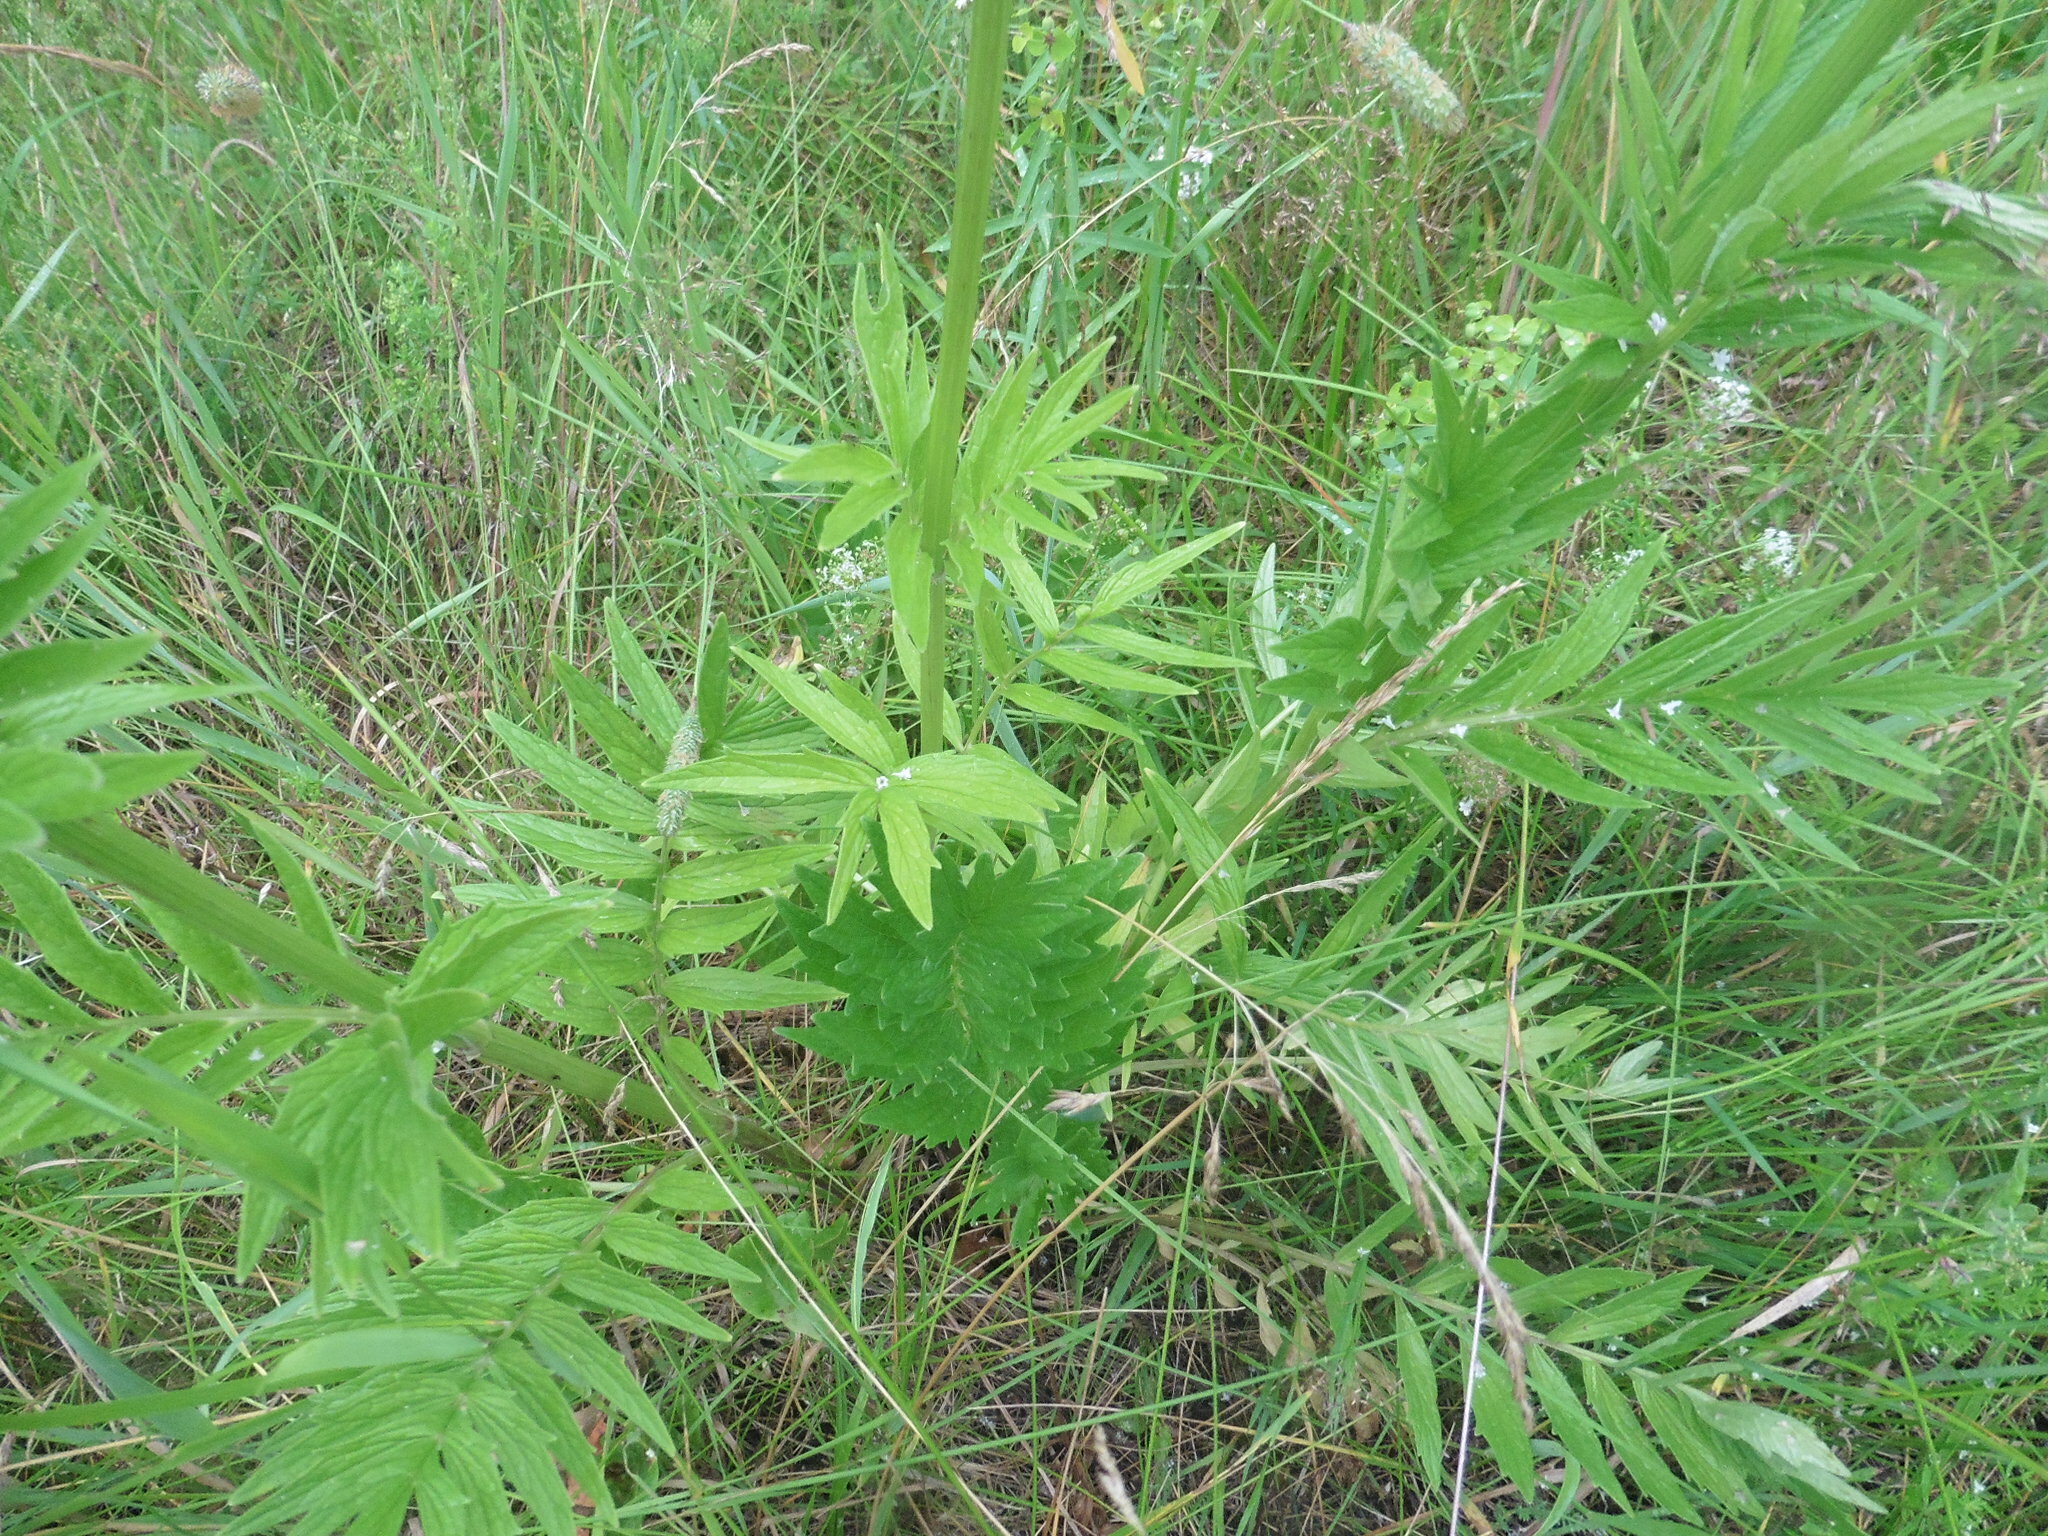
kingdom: Plantae
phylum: Tracheophyta
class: Magnoliopsida
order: Dipsacales
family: Caprifoliaceae
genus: Valeriana
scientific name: Valeriana officinalis
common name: Common valerian
